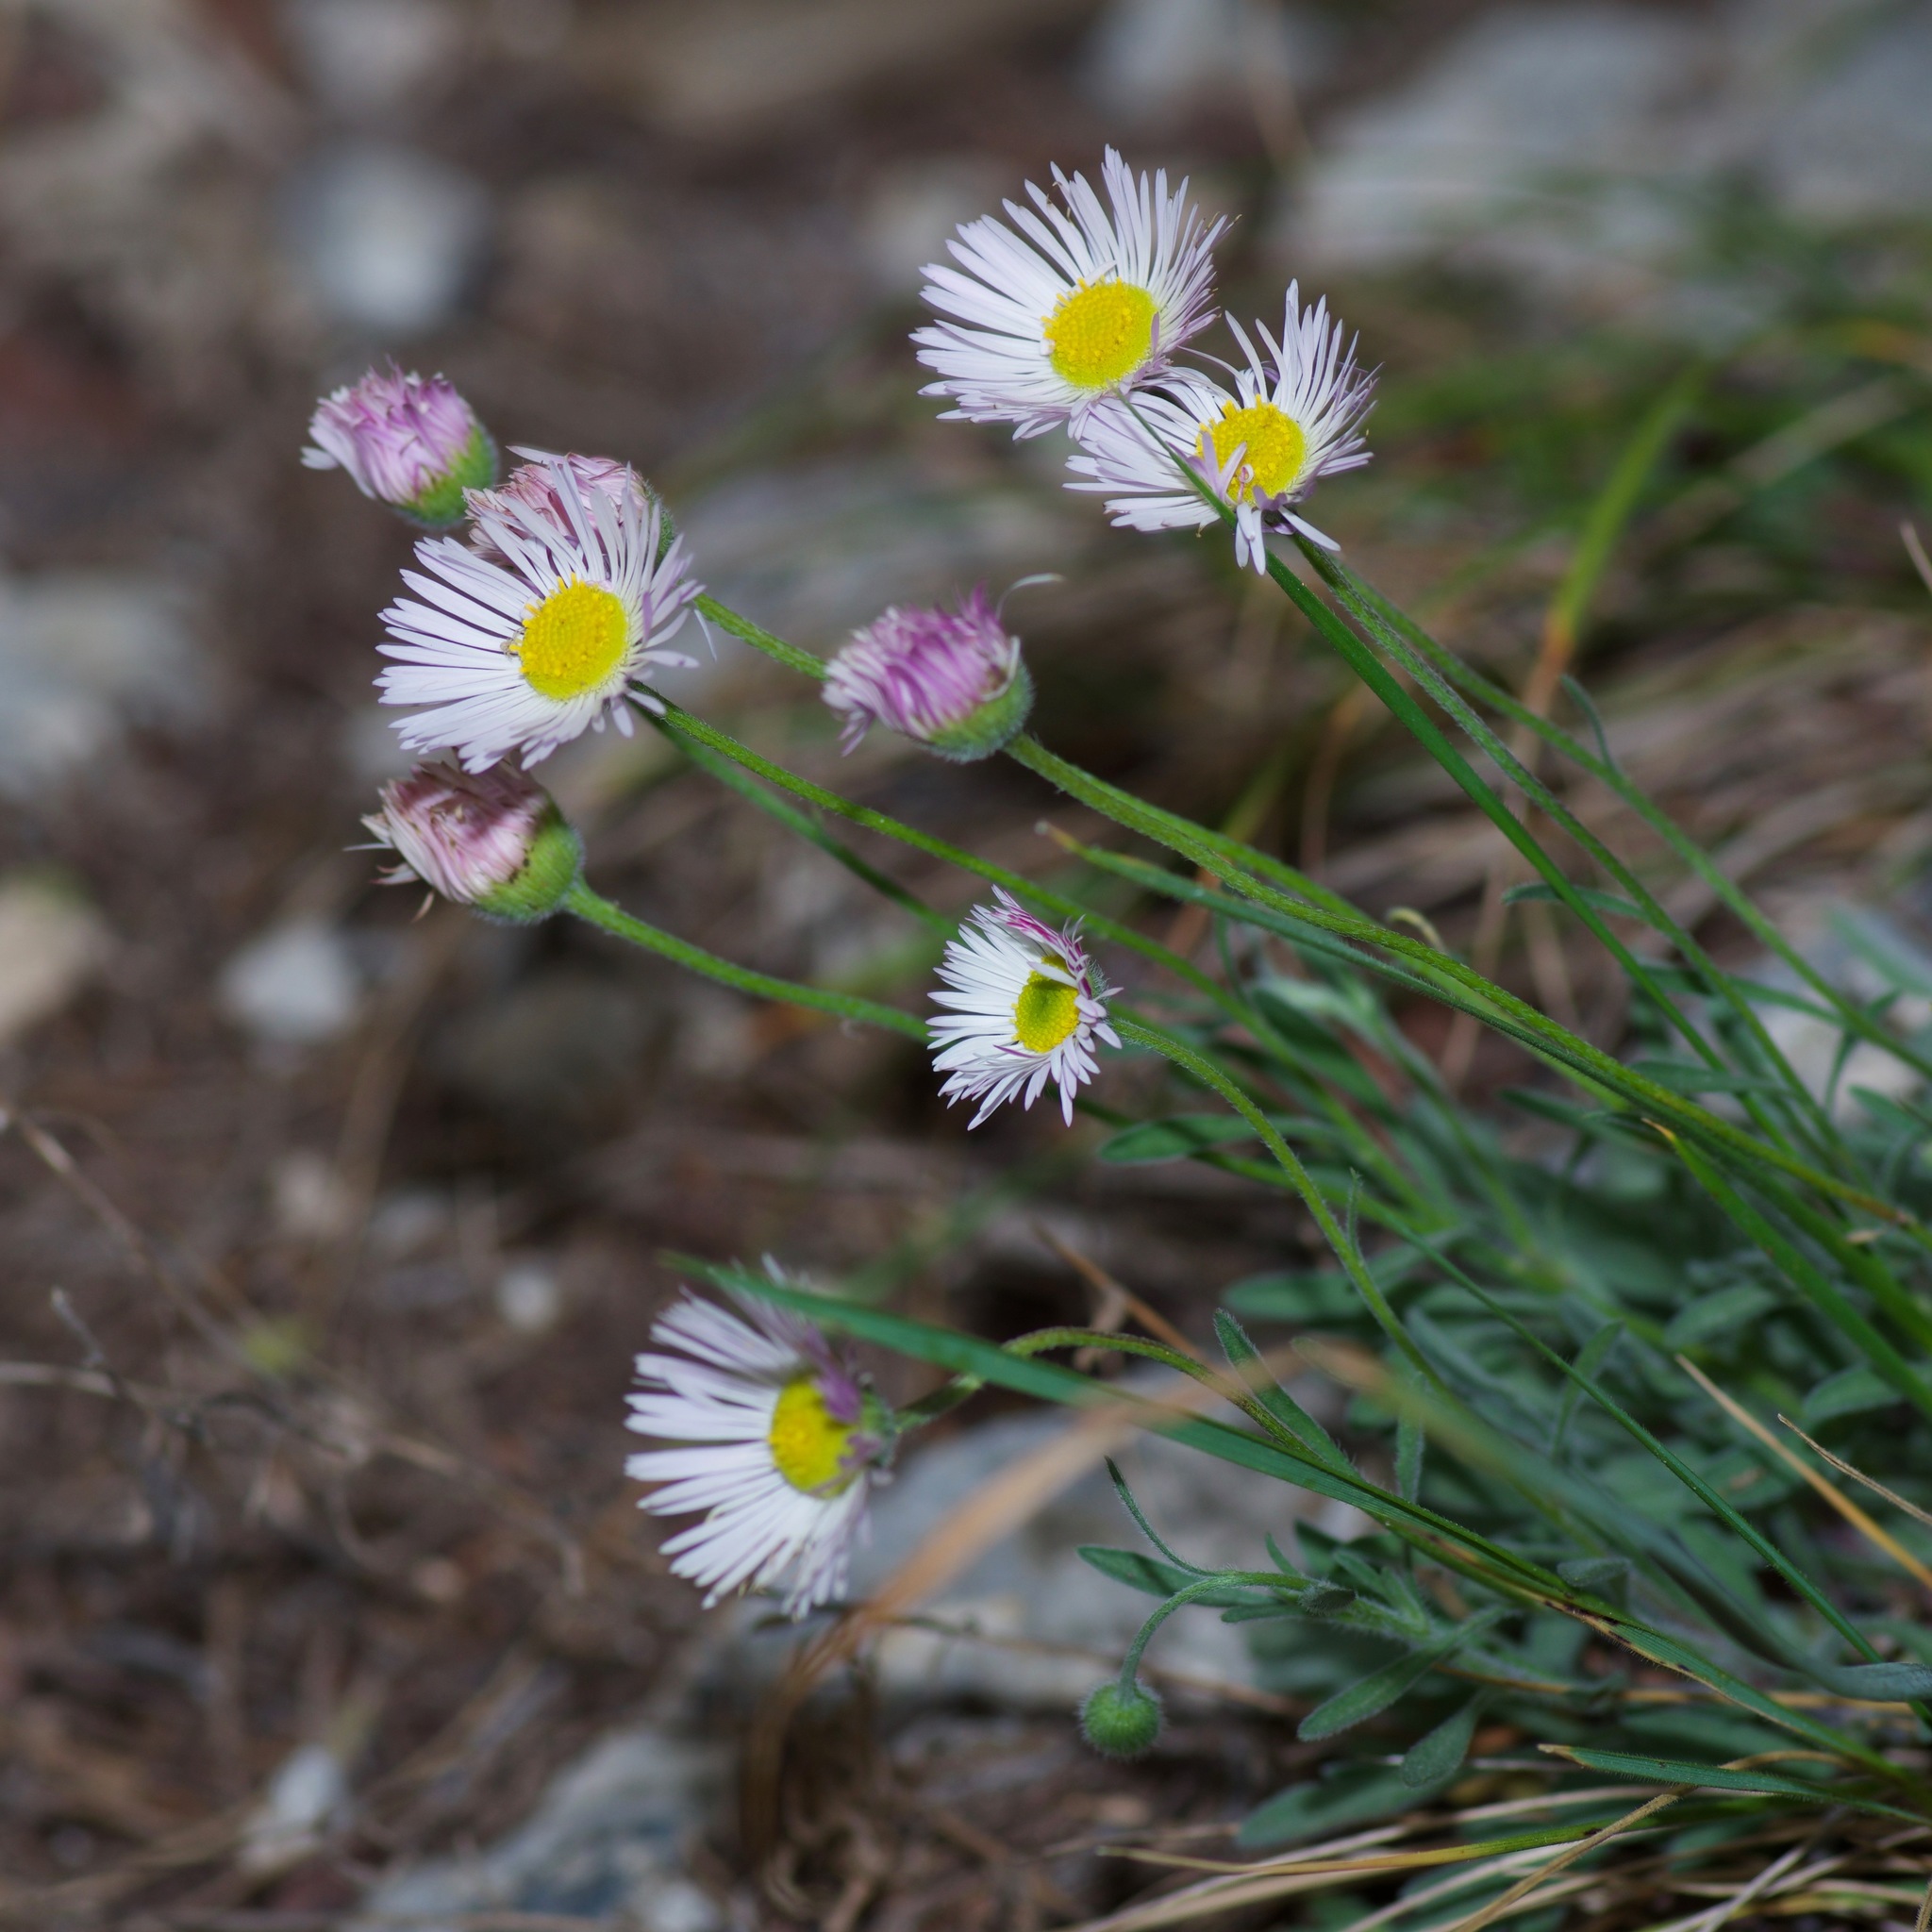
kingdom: Plantae
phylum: Tracheophyta
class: Magnoliopsida
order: Asterales
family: Asteraceae
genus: Erigeron
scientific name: Erigeron philadelphicus
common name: Robin's-plantain
